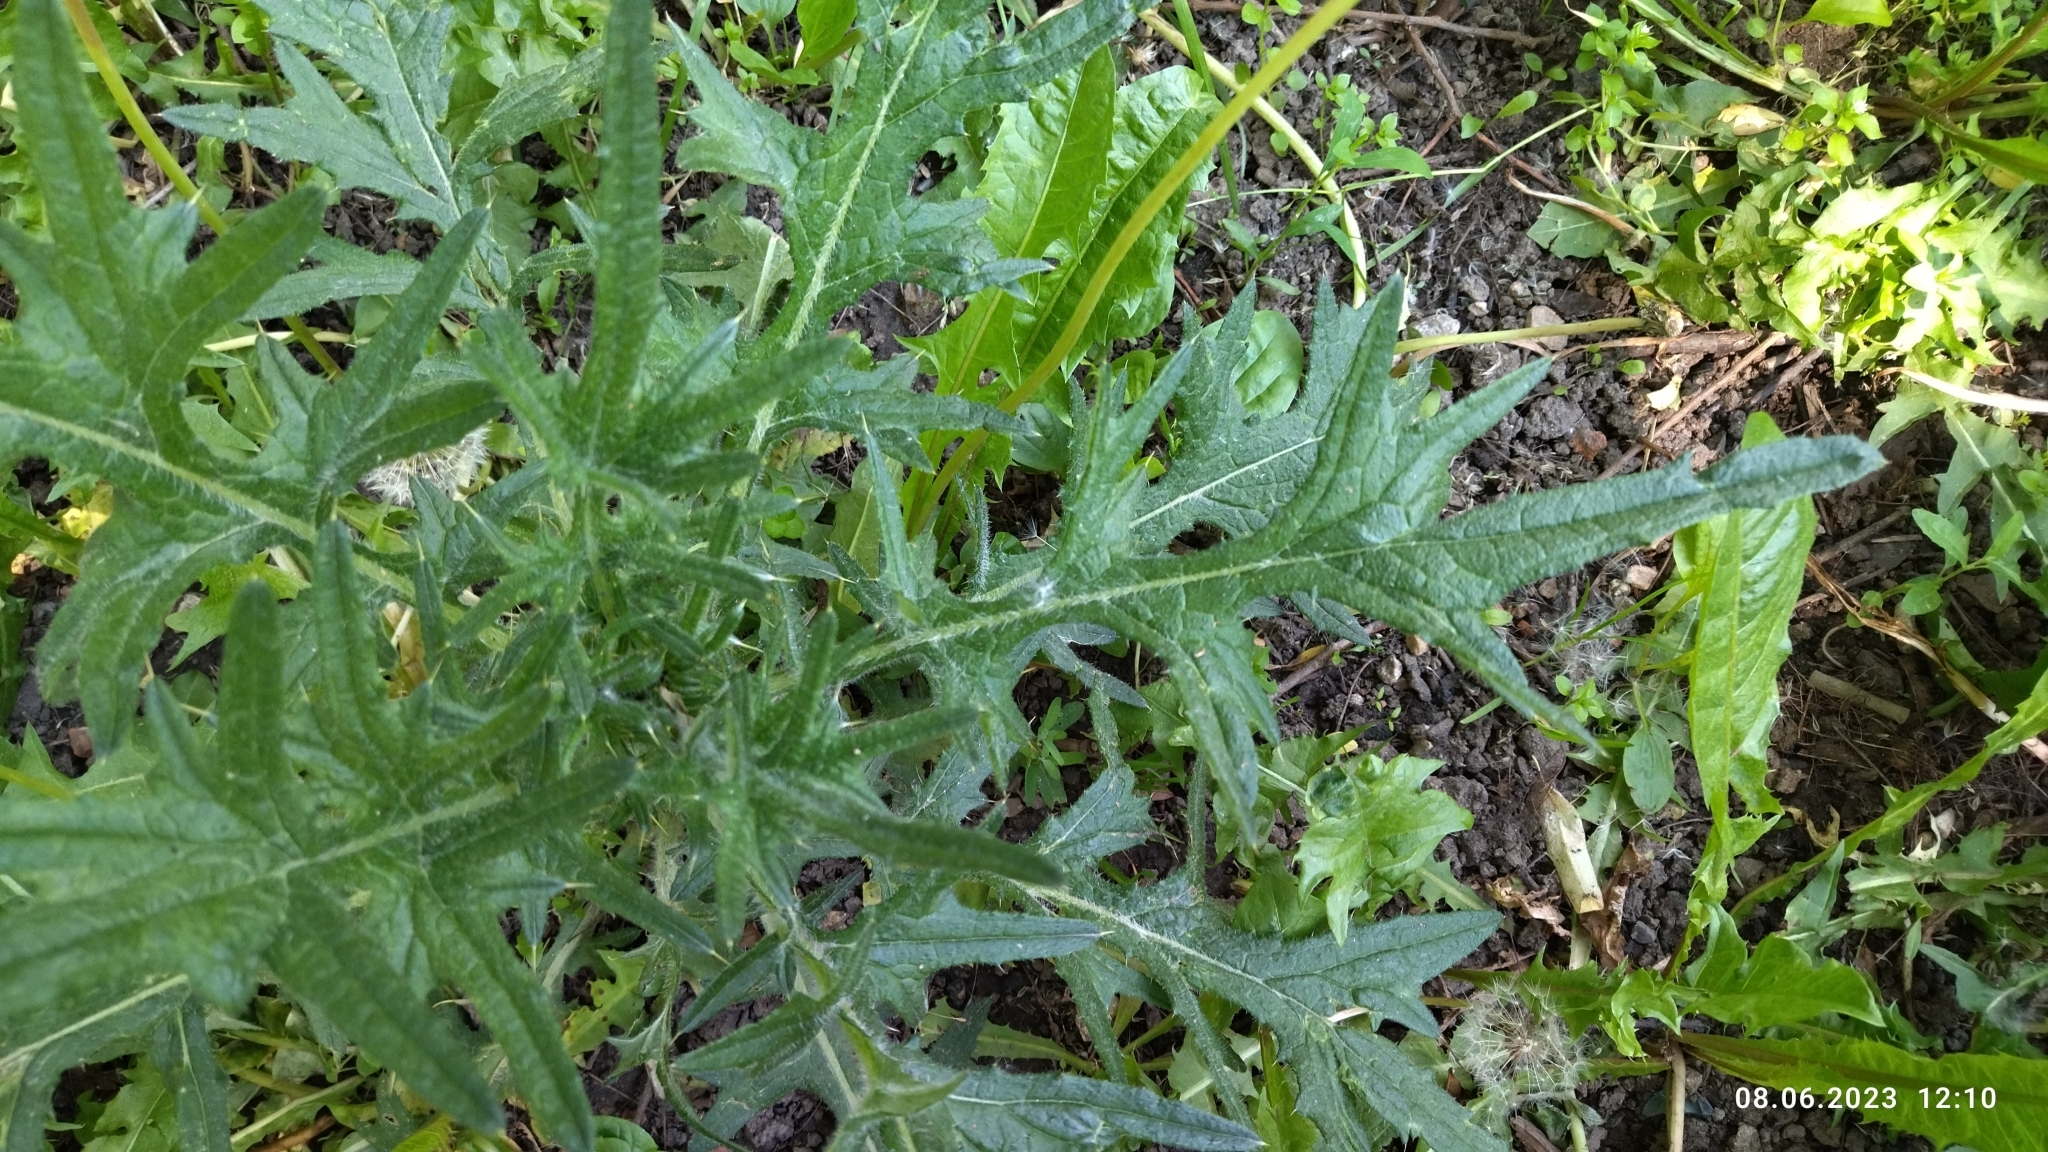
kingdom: Plantae
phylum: Tracheophyta
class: Magnoliopsida
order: Asterales
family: Asteraceae
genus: Cirsium
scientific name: Cirsium vulgare
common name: Bull thistle
